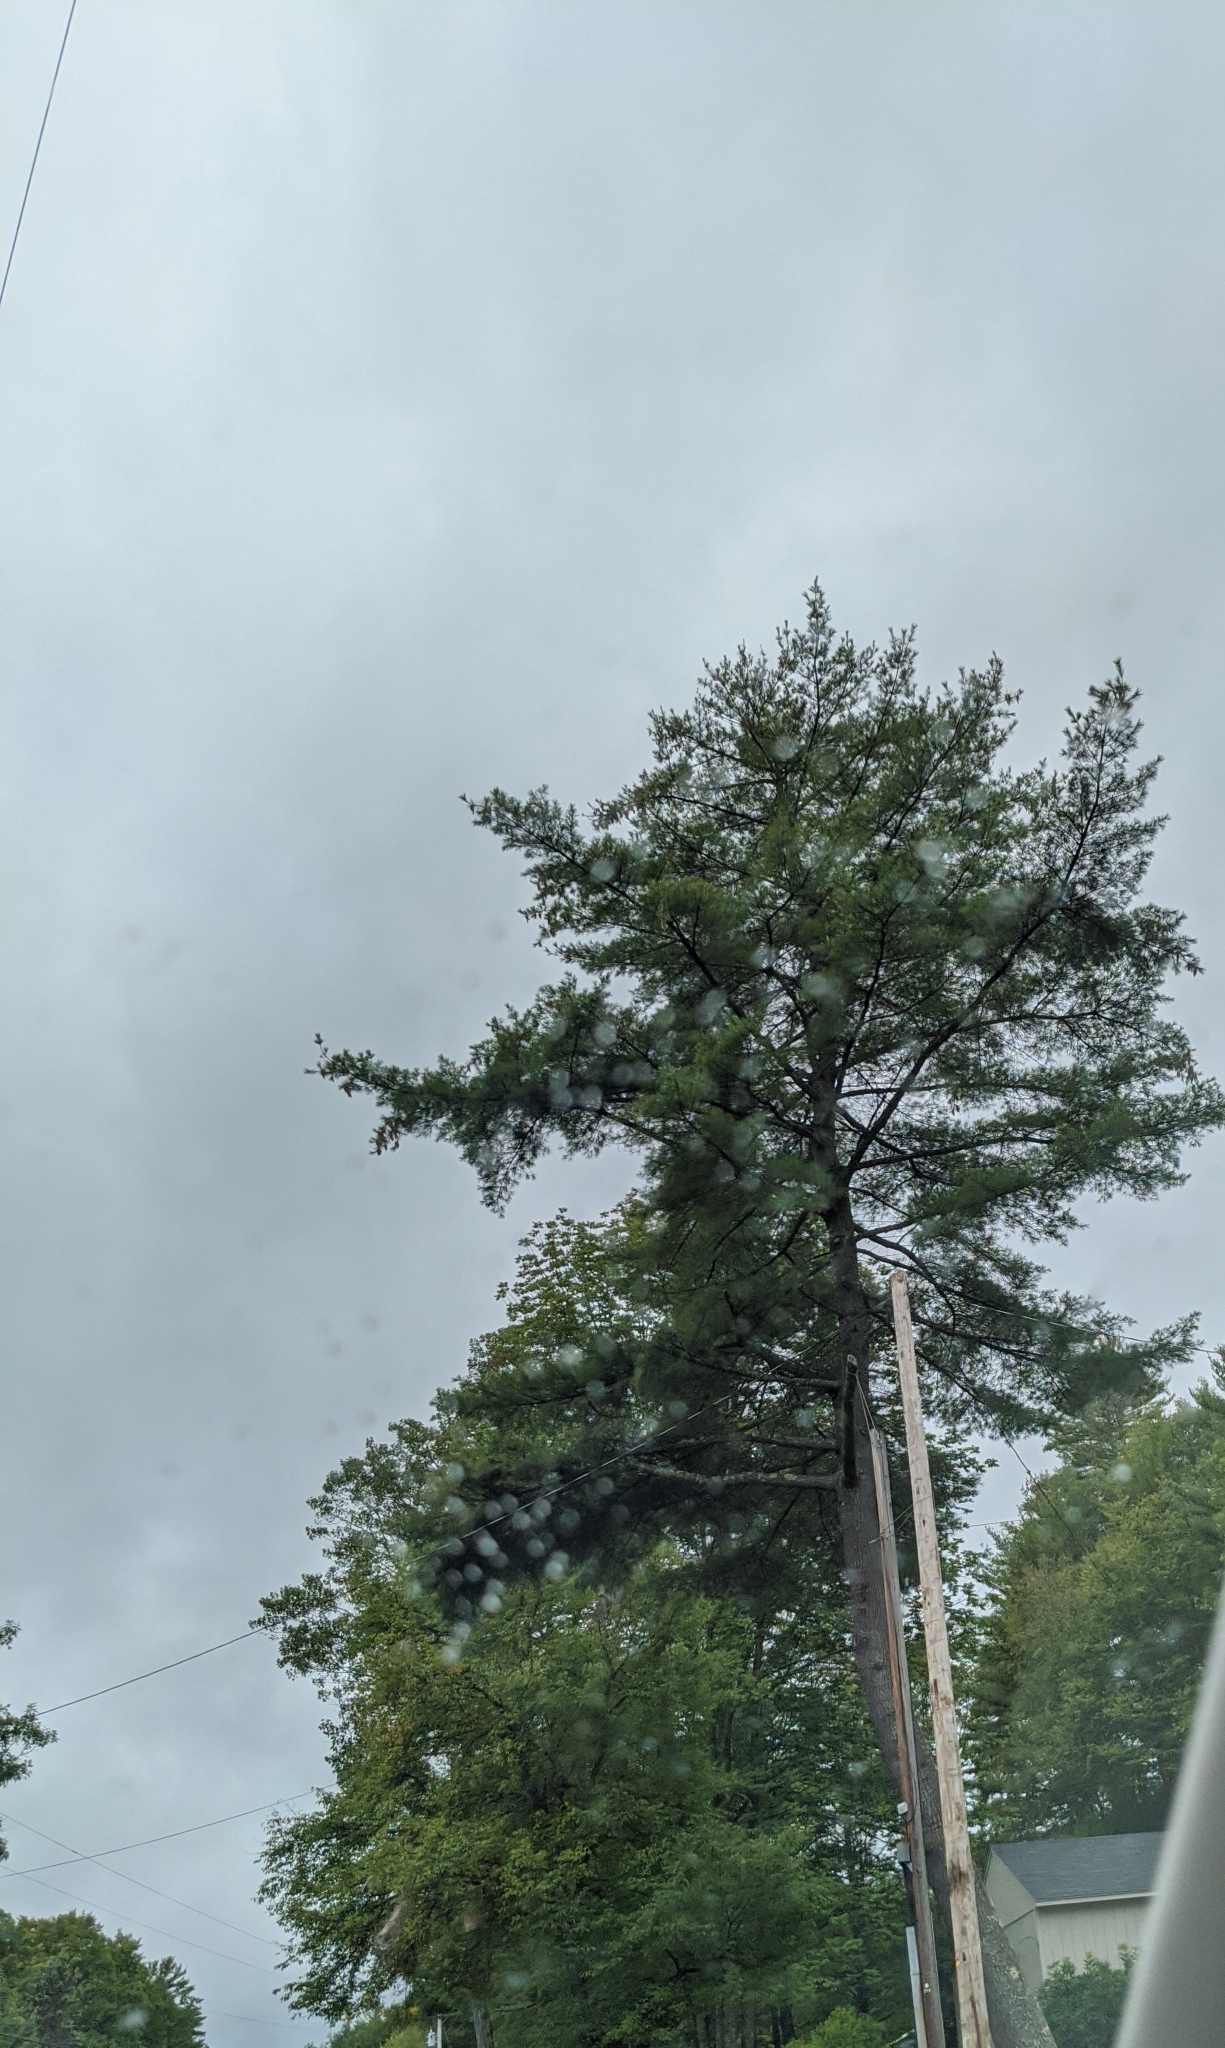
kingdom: Plantae
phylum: Tracheophyta
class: Pinopsida
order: Pinales
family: Pinaceae
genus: Pinus
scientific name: Pinus strobus
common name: Weymouth pine
